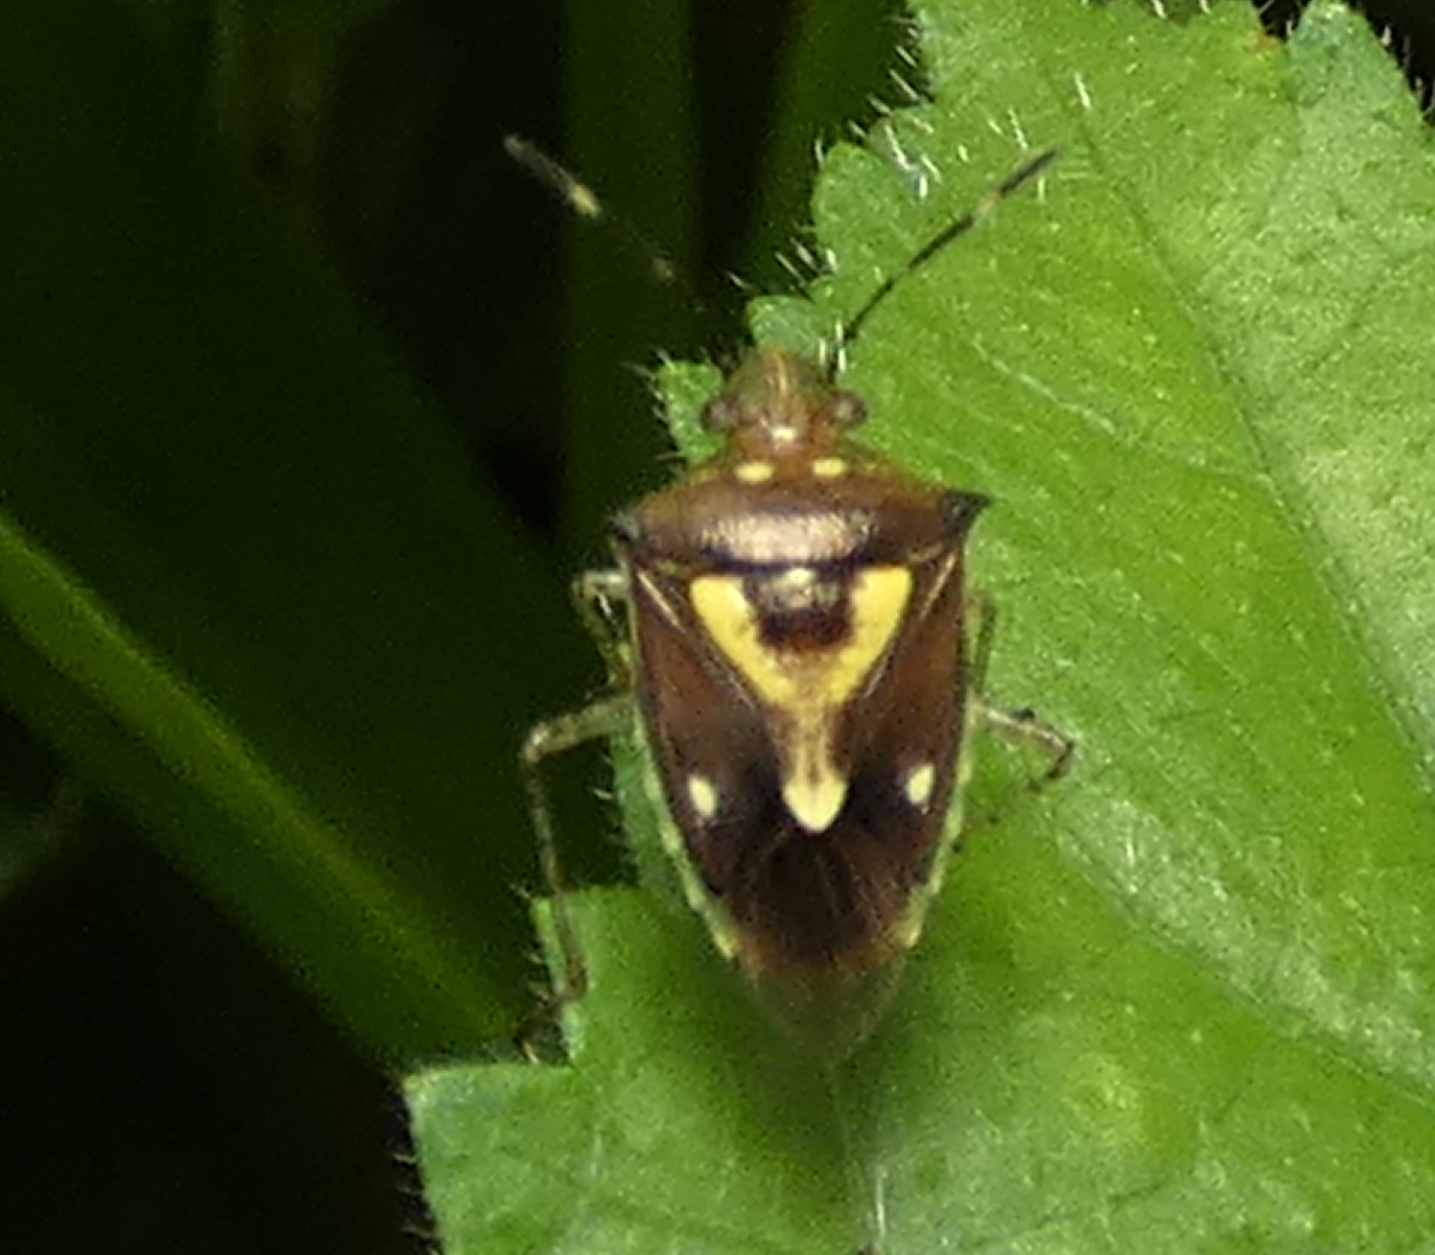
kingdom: Animalia
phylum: Arthropoda
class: Insecta
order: Hemiptera
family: Pentatomidae
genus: Mormidea
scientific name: Mormidea ypsilon
